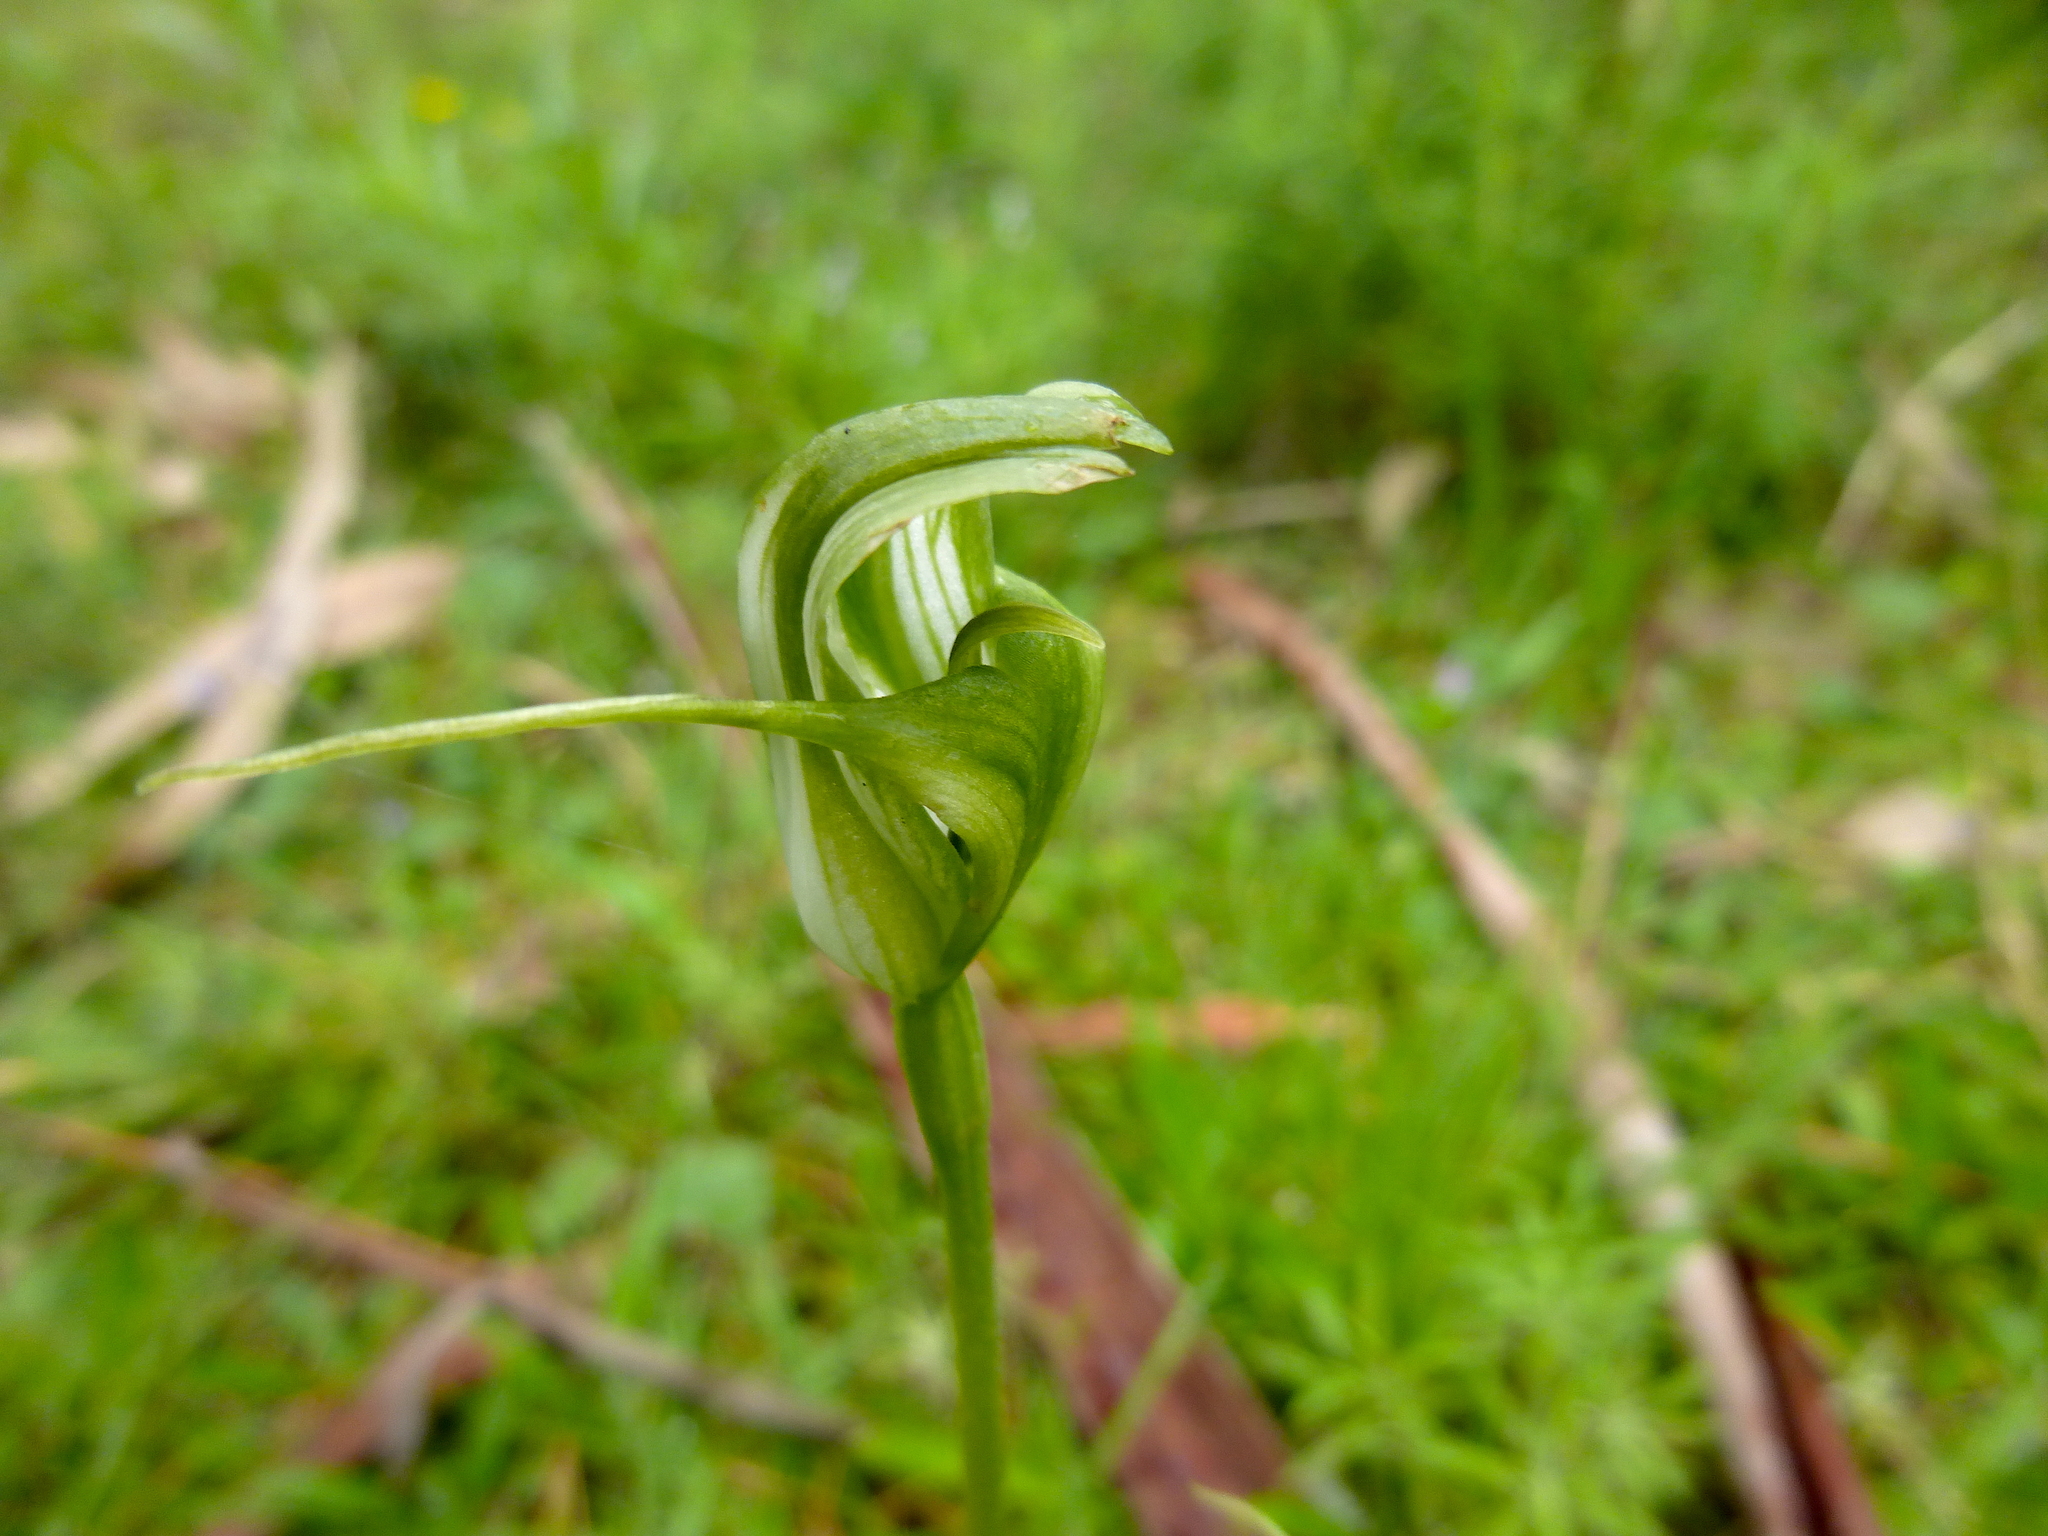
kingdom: Plantae
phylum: Tracheophyta
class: Liliopsida
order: Asparagales
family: Orchidaceae
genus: Pterostylis
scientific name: Pterostylis alpina
